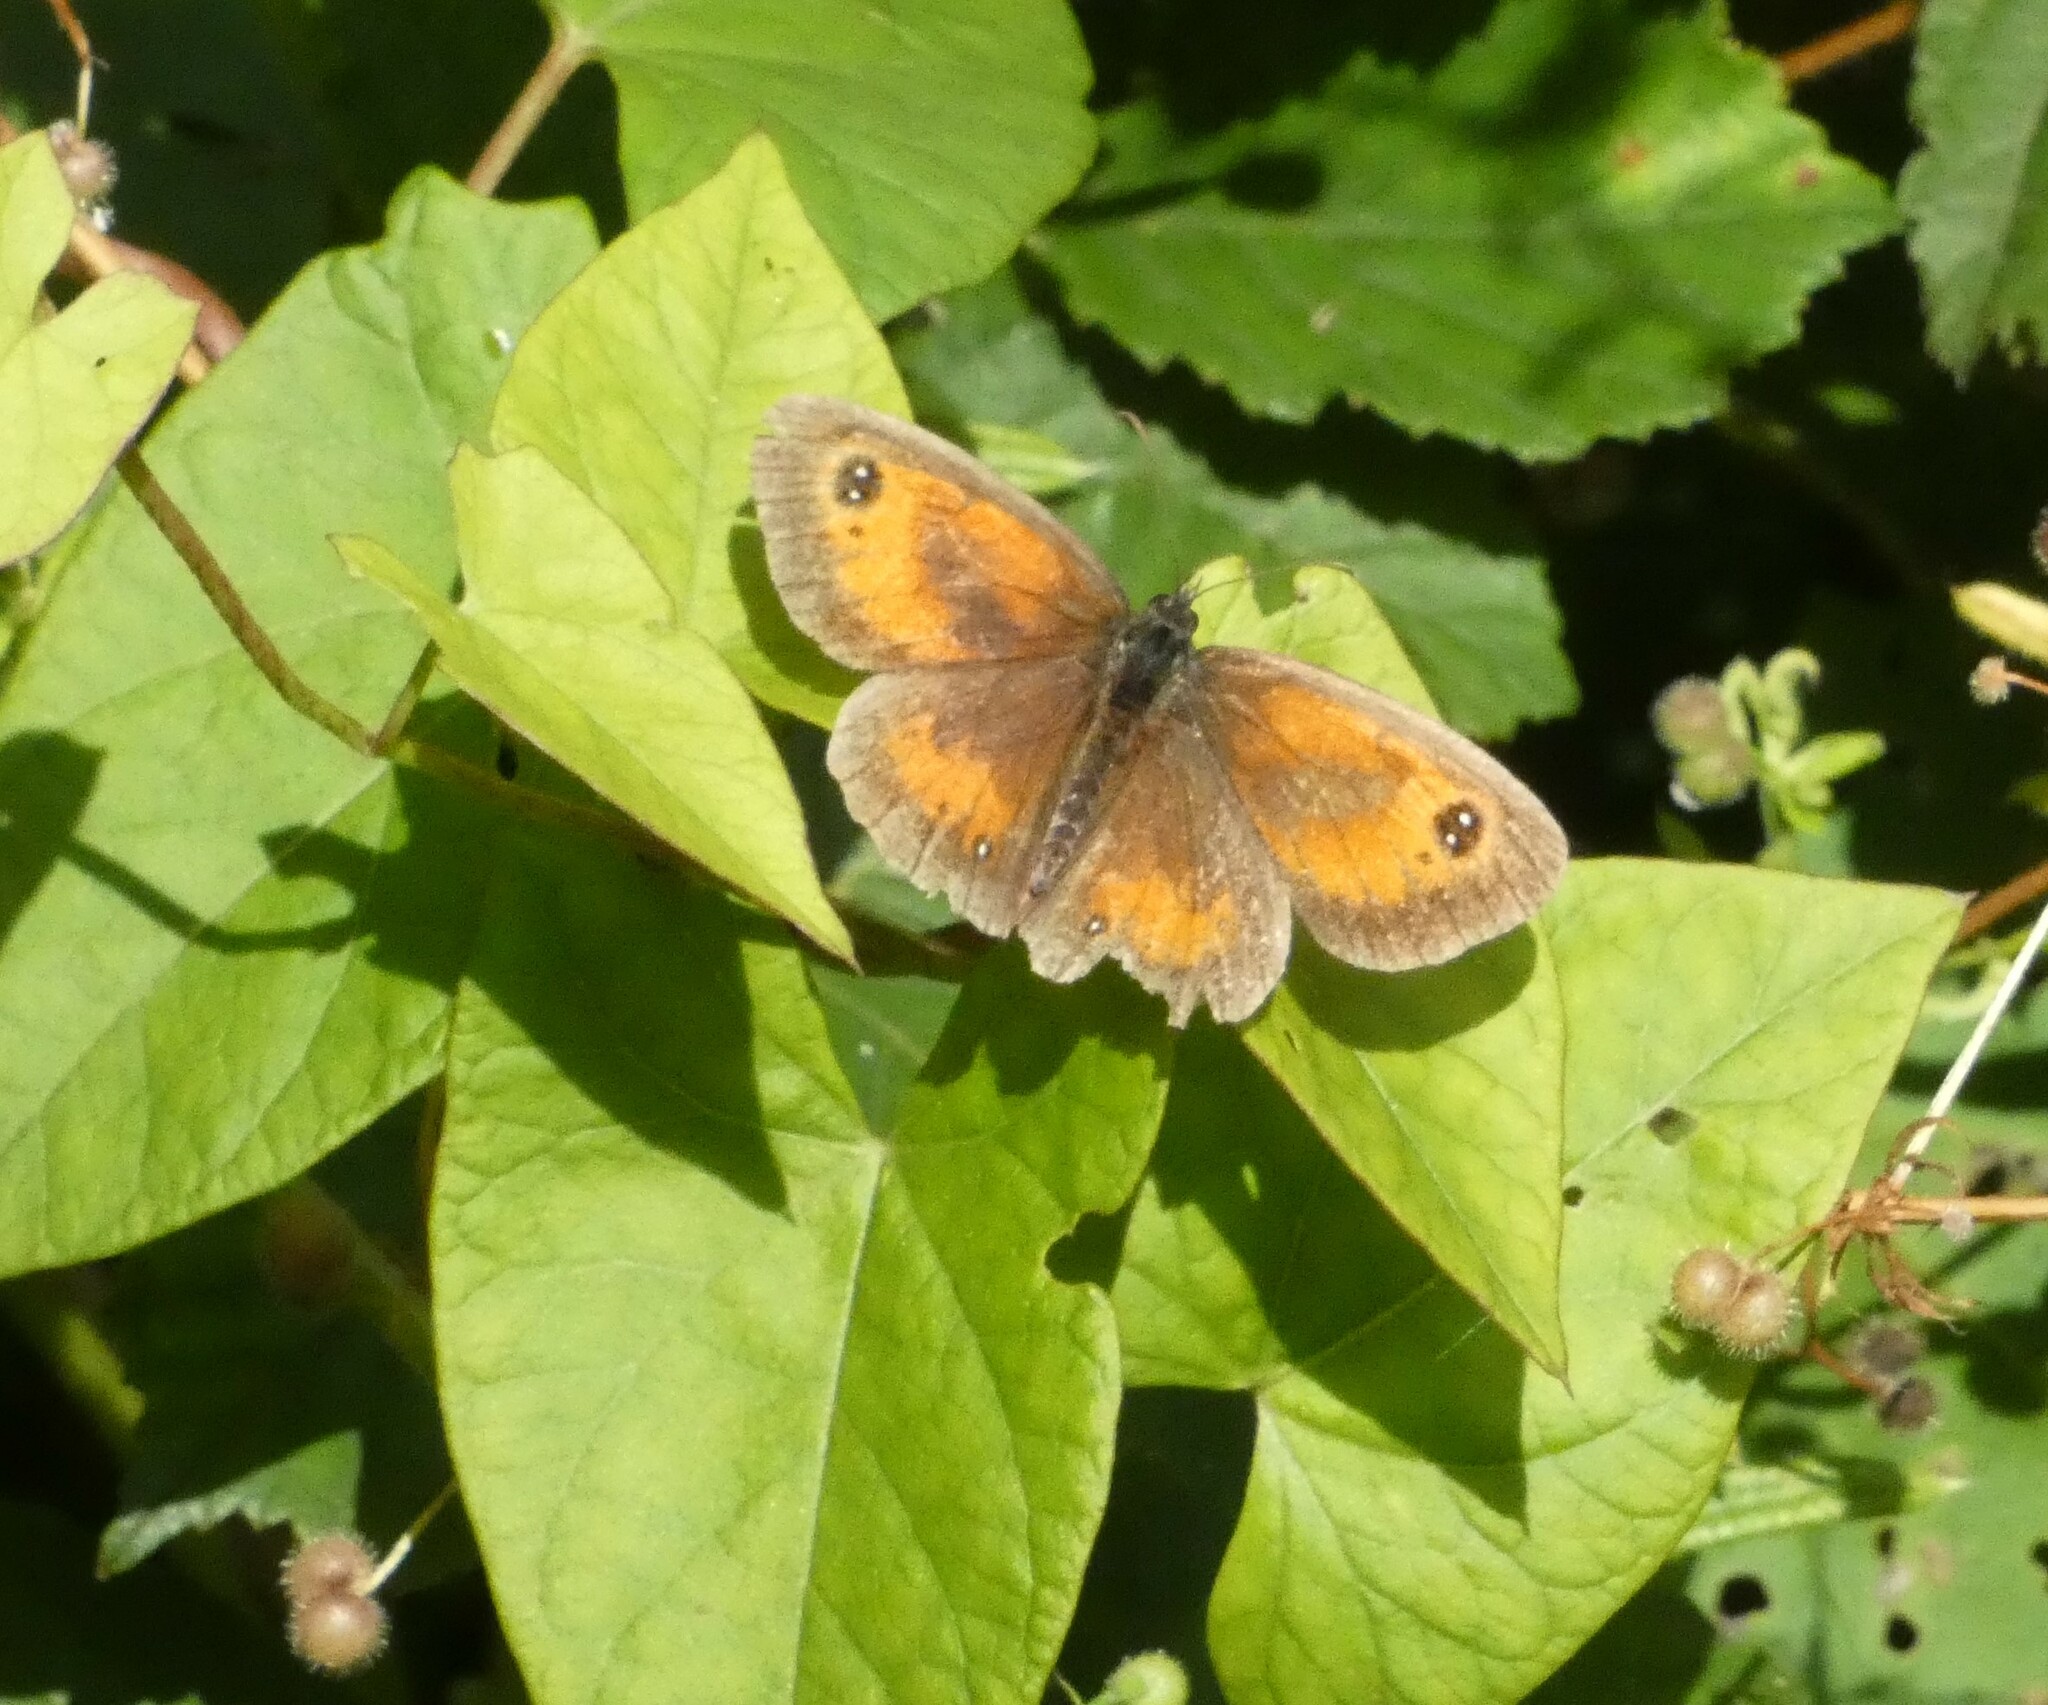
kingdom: Animalia
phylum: Arthropoda
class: Insecta
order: Lepidoptera
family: Nymphalidae
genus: Pyronia
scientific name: Pyronia tithonus
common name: Gatekeeper
